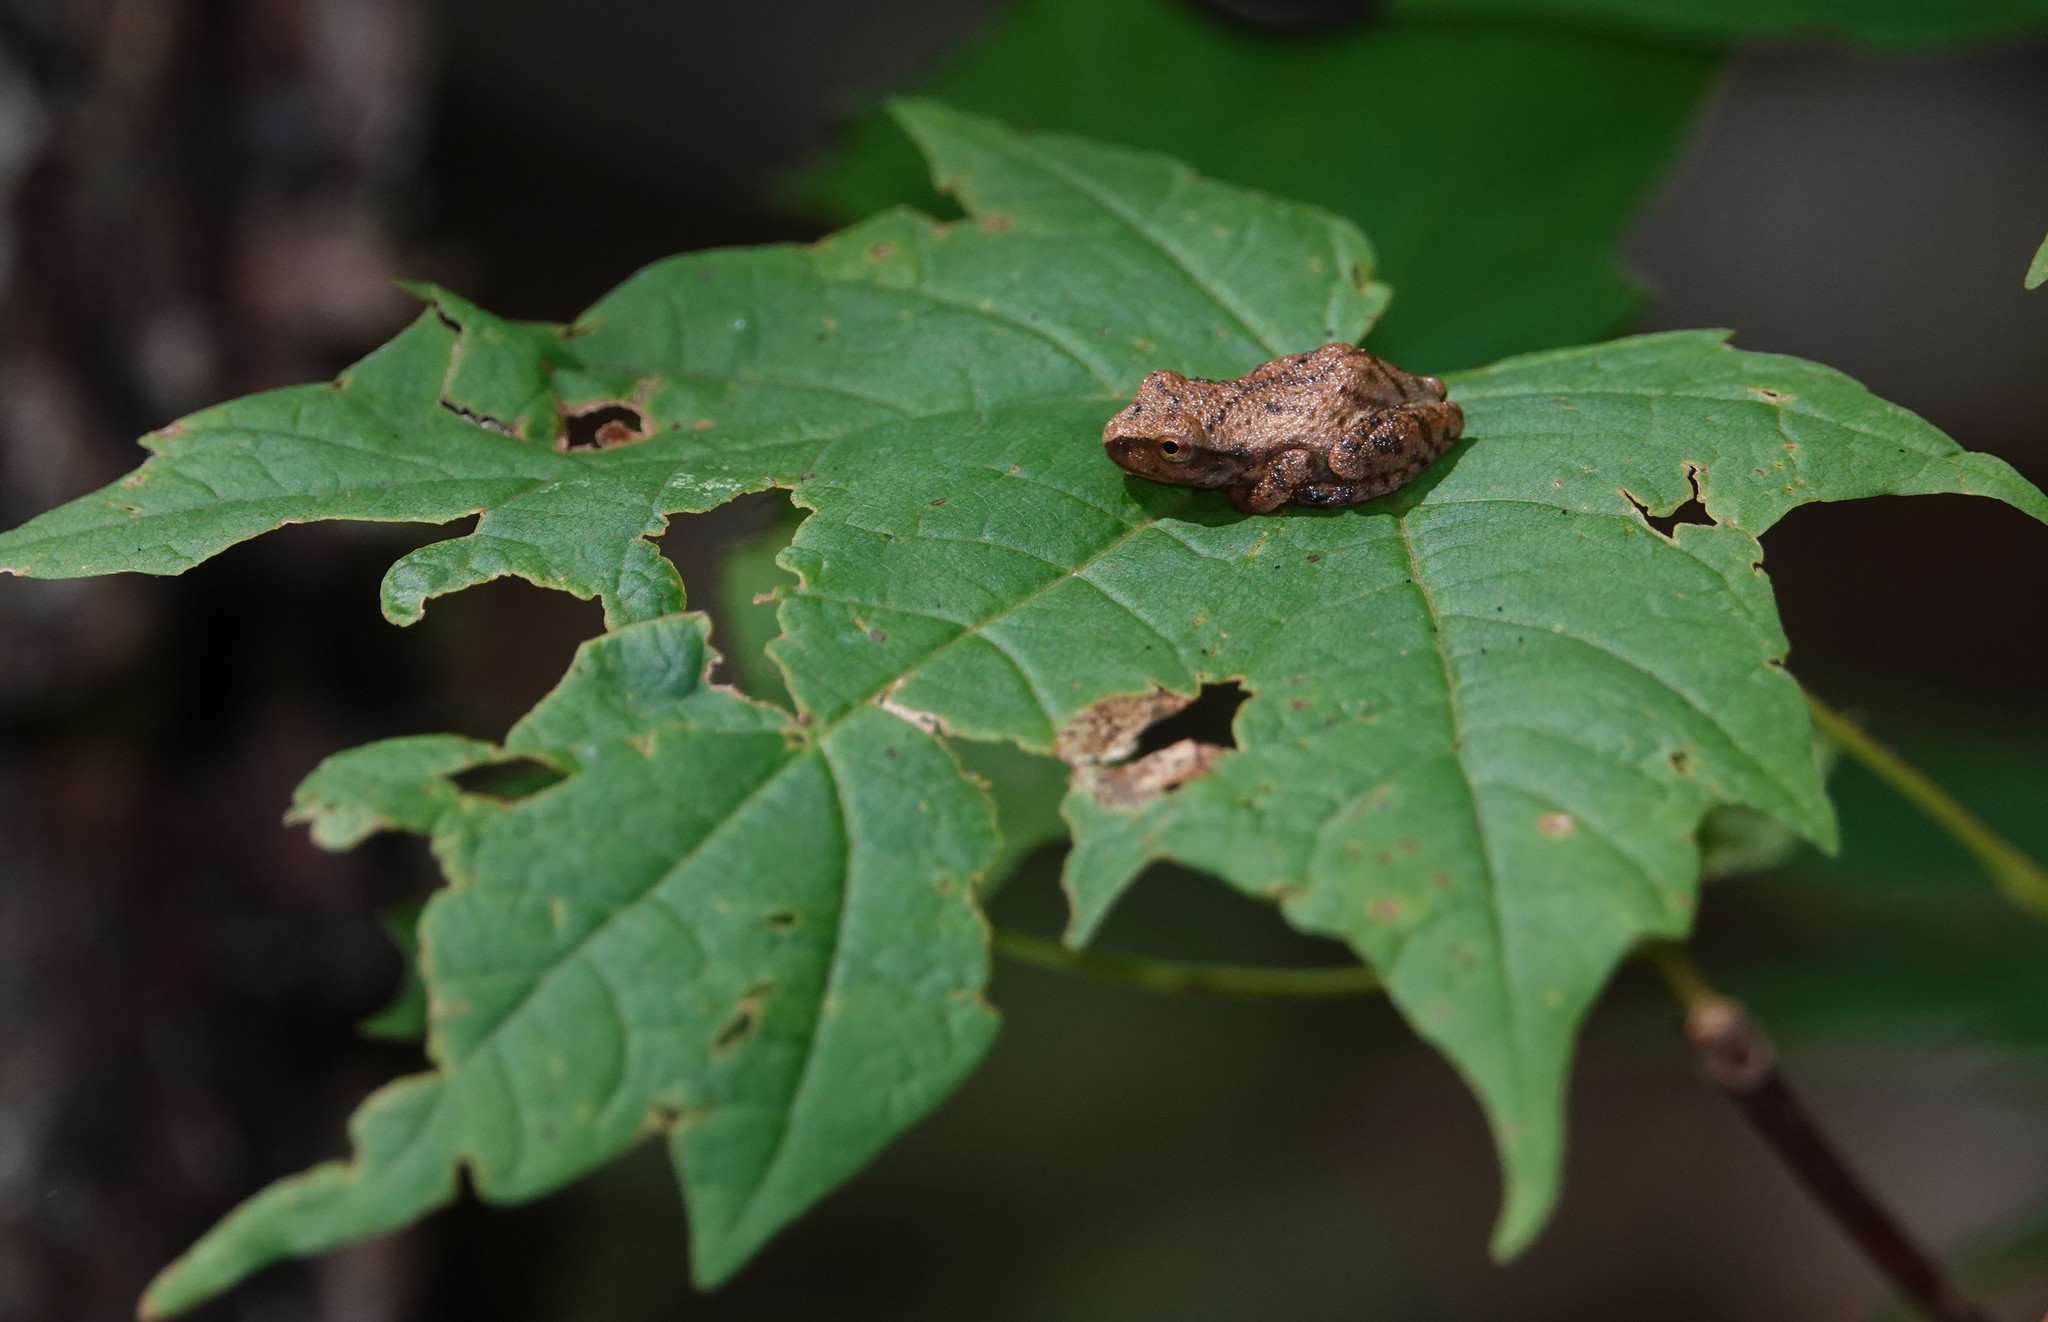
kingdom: Animalia
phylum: Chordata
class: Amphibia
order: Anura
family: Hylidae
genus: Pseudacris
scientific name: Pseudacris crucifer
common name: Spring peeper
